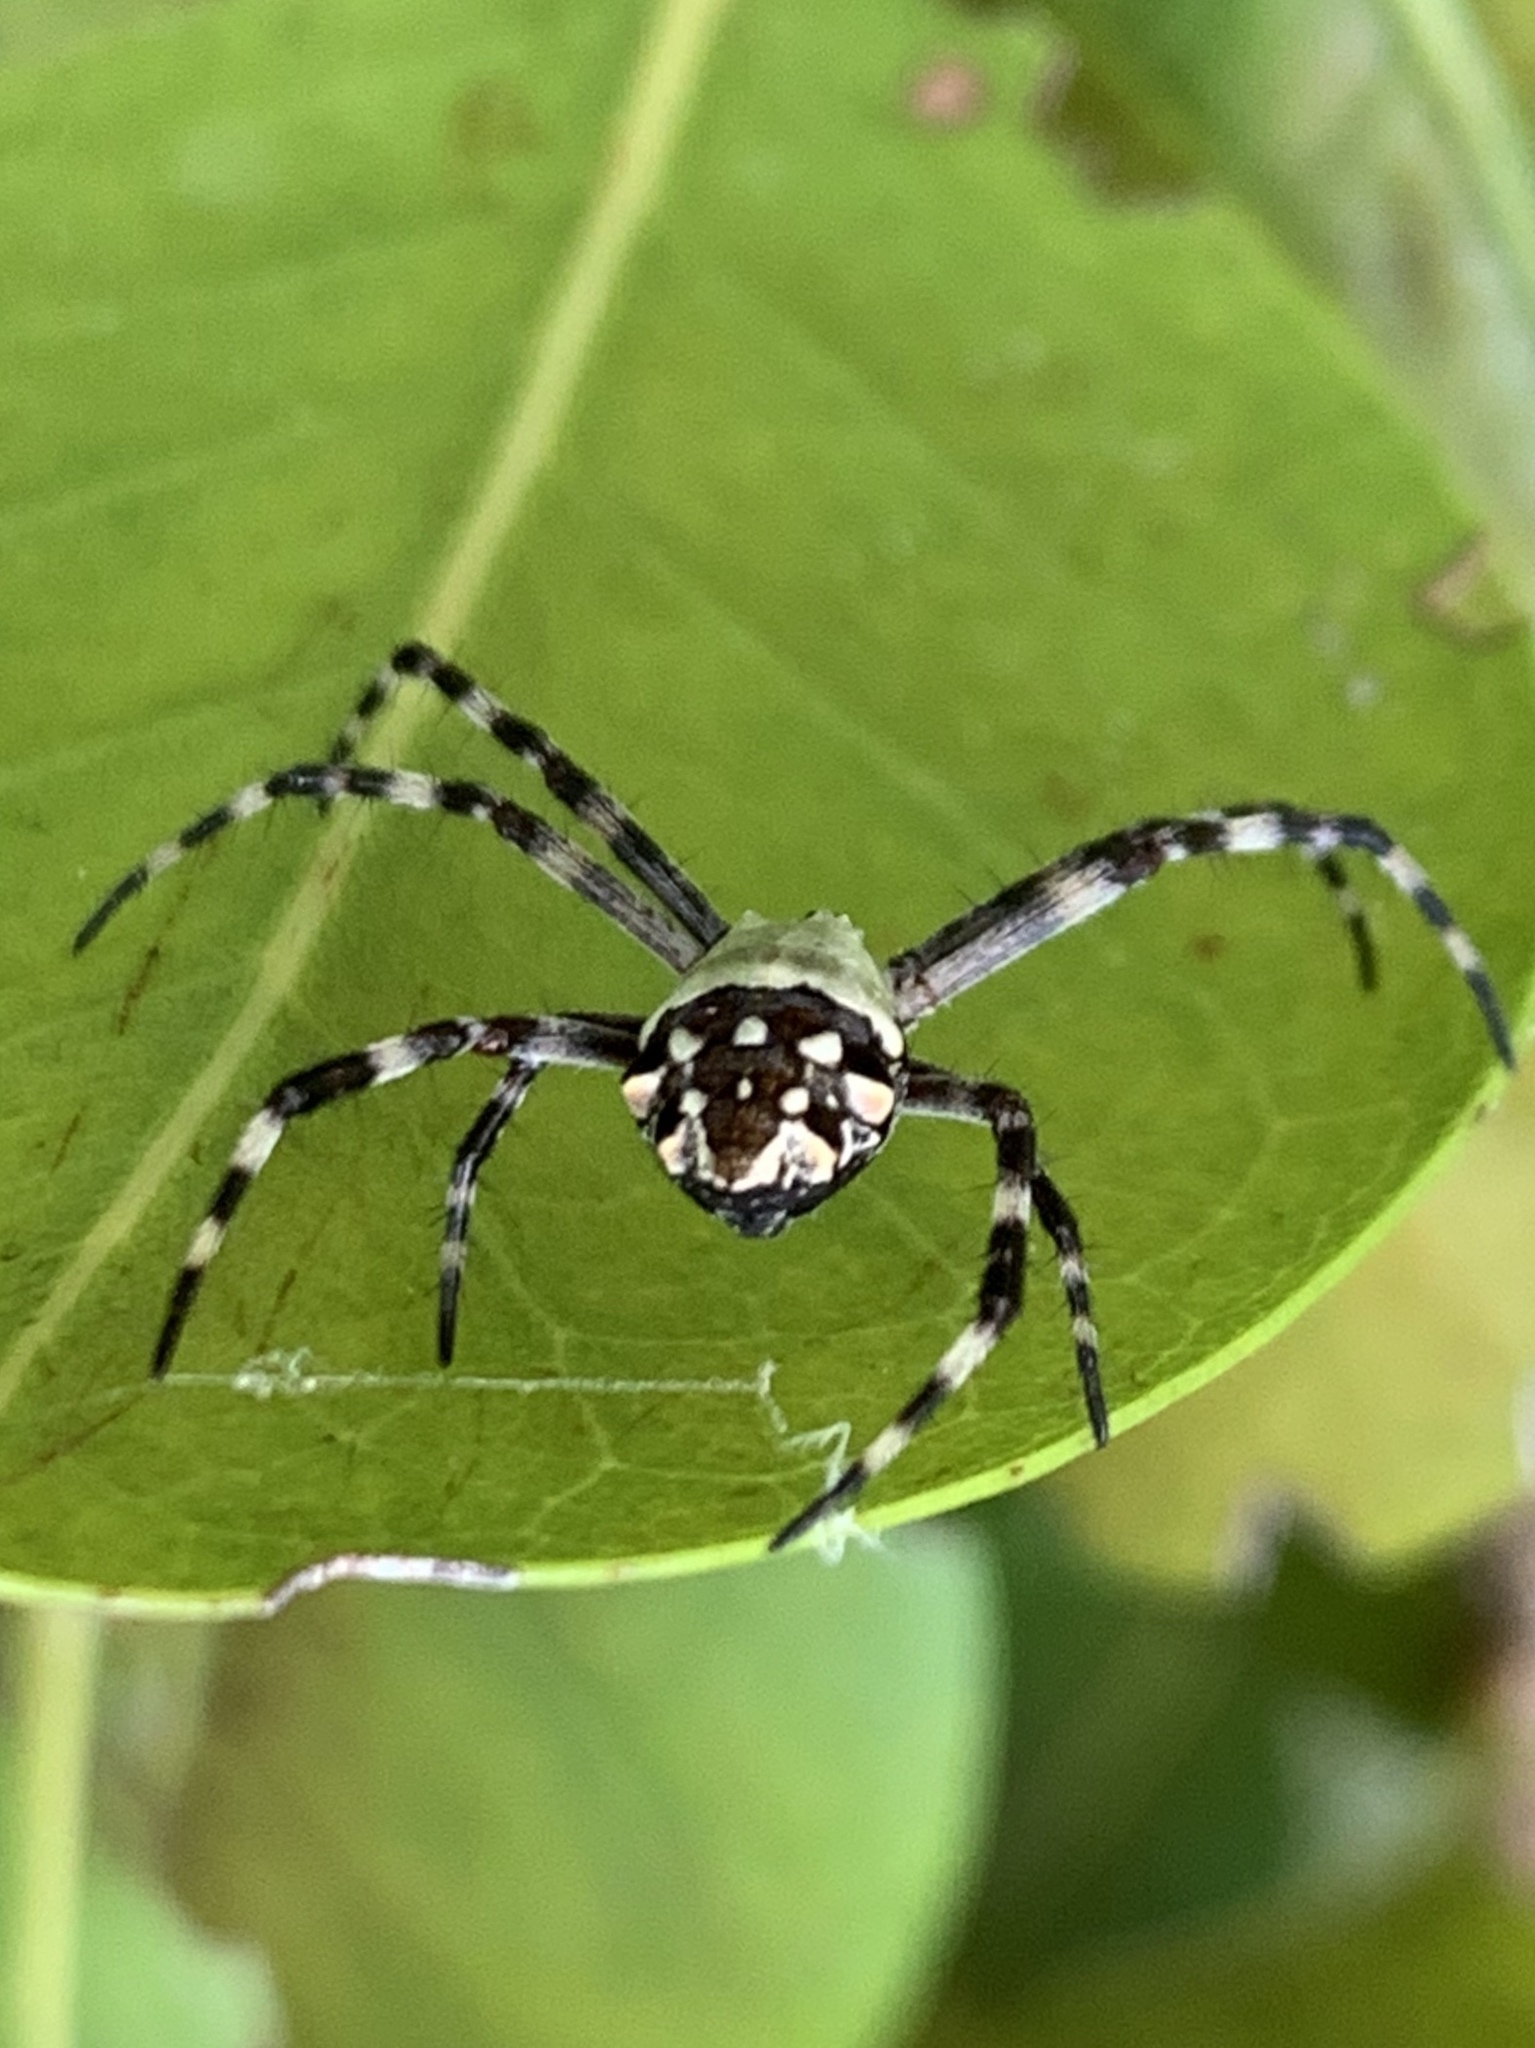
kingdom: Animalia
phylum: Arthropoda
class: Arachnida
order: Araneae
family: Araneidae
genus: Argiope
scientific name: Argiope argentata
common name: Orb weavers
